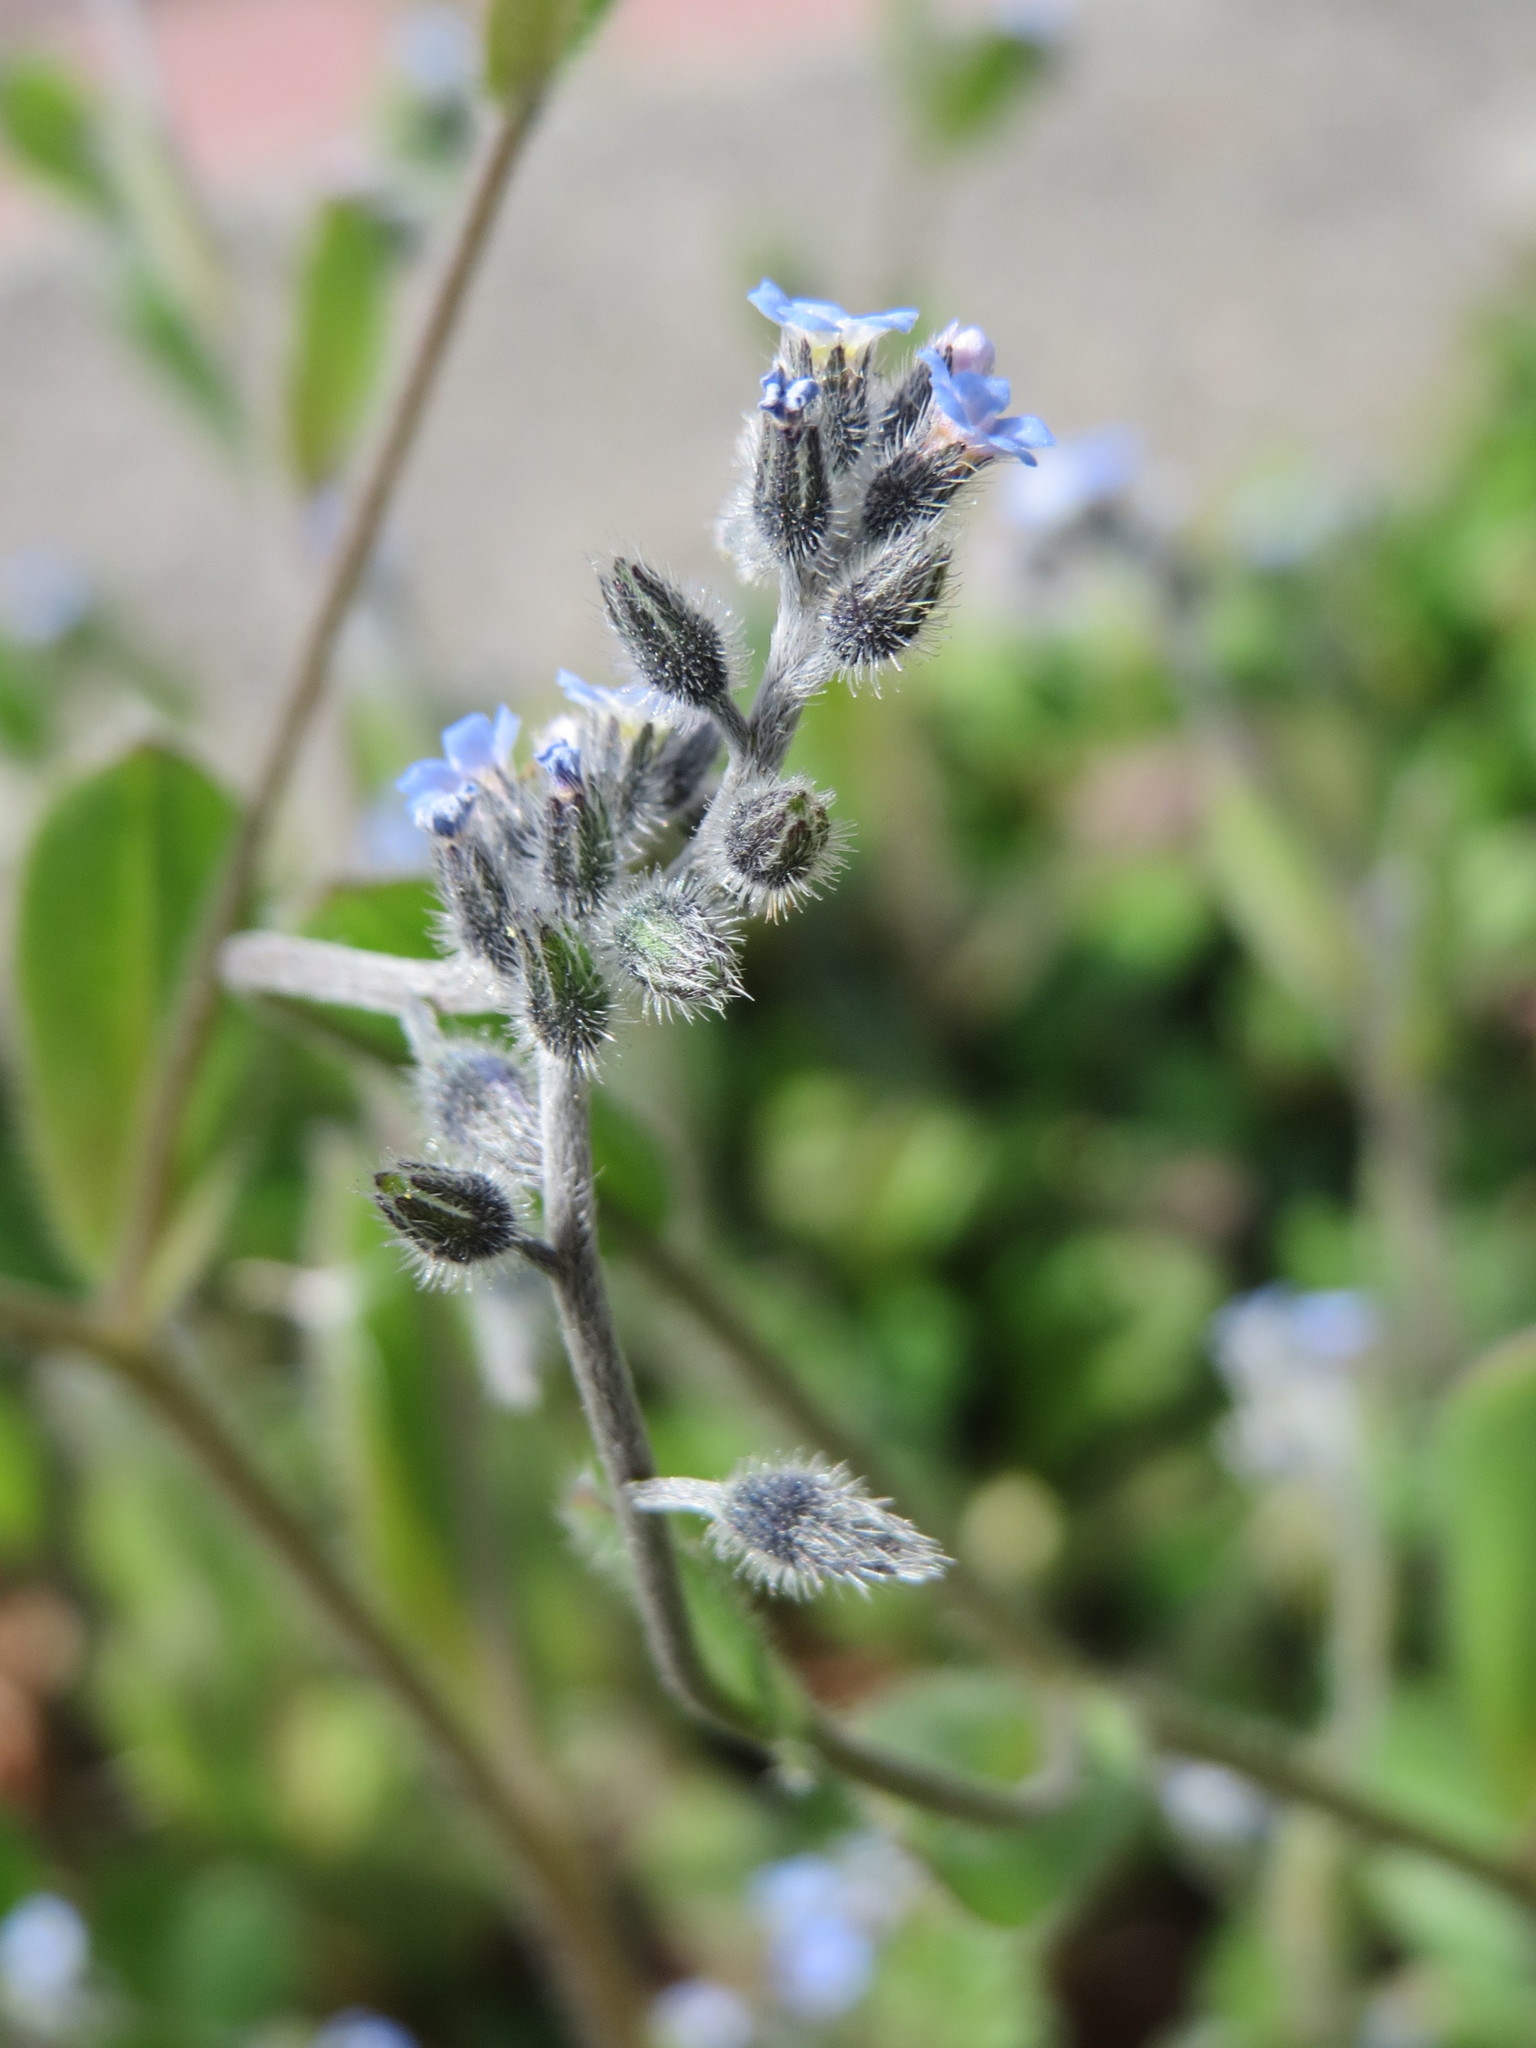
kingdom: Plantae
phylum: Tracheophyta
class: Magnoliopsida
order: Boraginales
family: Boraginaceae
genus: Myosotis
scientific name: Myosotis ramosissima
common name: Early forget-me-not
